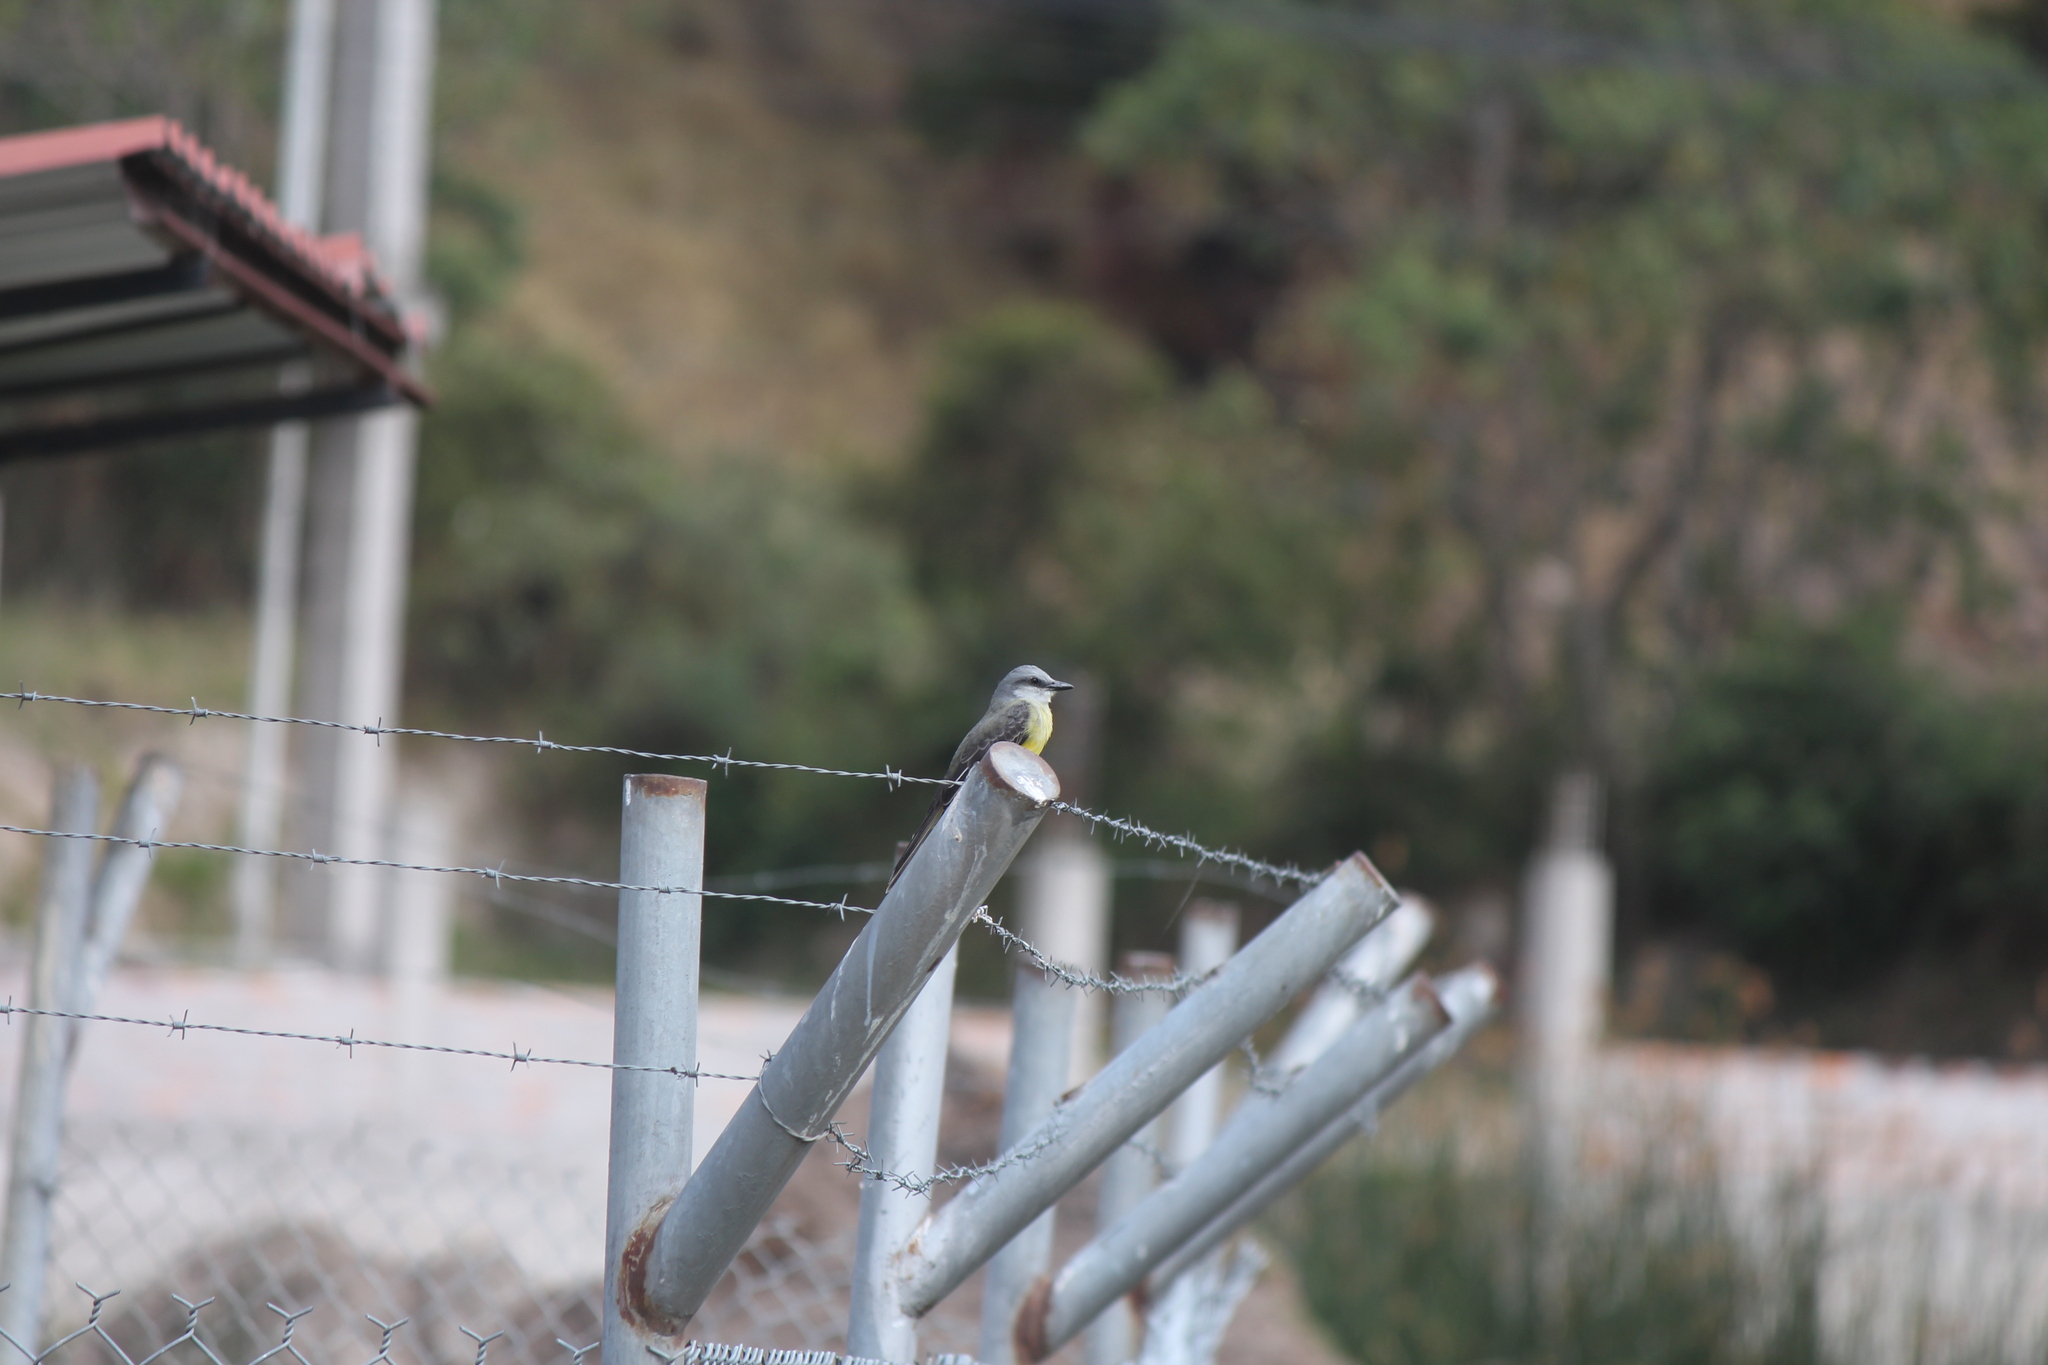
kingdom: Animalia
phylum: Chordata
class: Aves
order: Passeriformes
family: Tyrannidae
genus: Tyrannus
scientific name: Tyrannus melancholicus
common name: Tropical kingbird
